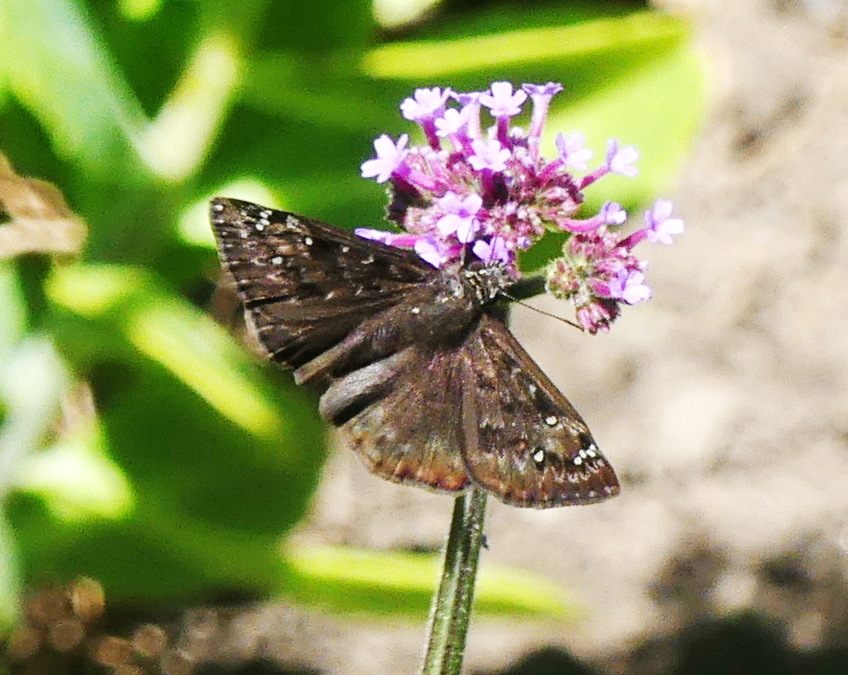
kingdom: Animalia
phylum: Arthropoda
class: Insecta
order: Lepidoptera
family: Hesperiidae
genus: Erynnis
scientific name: Erynnis horatius
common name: Horace's duskywing
